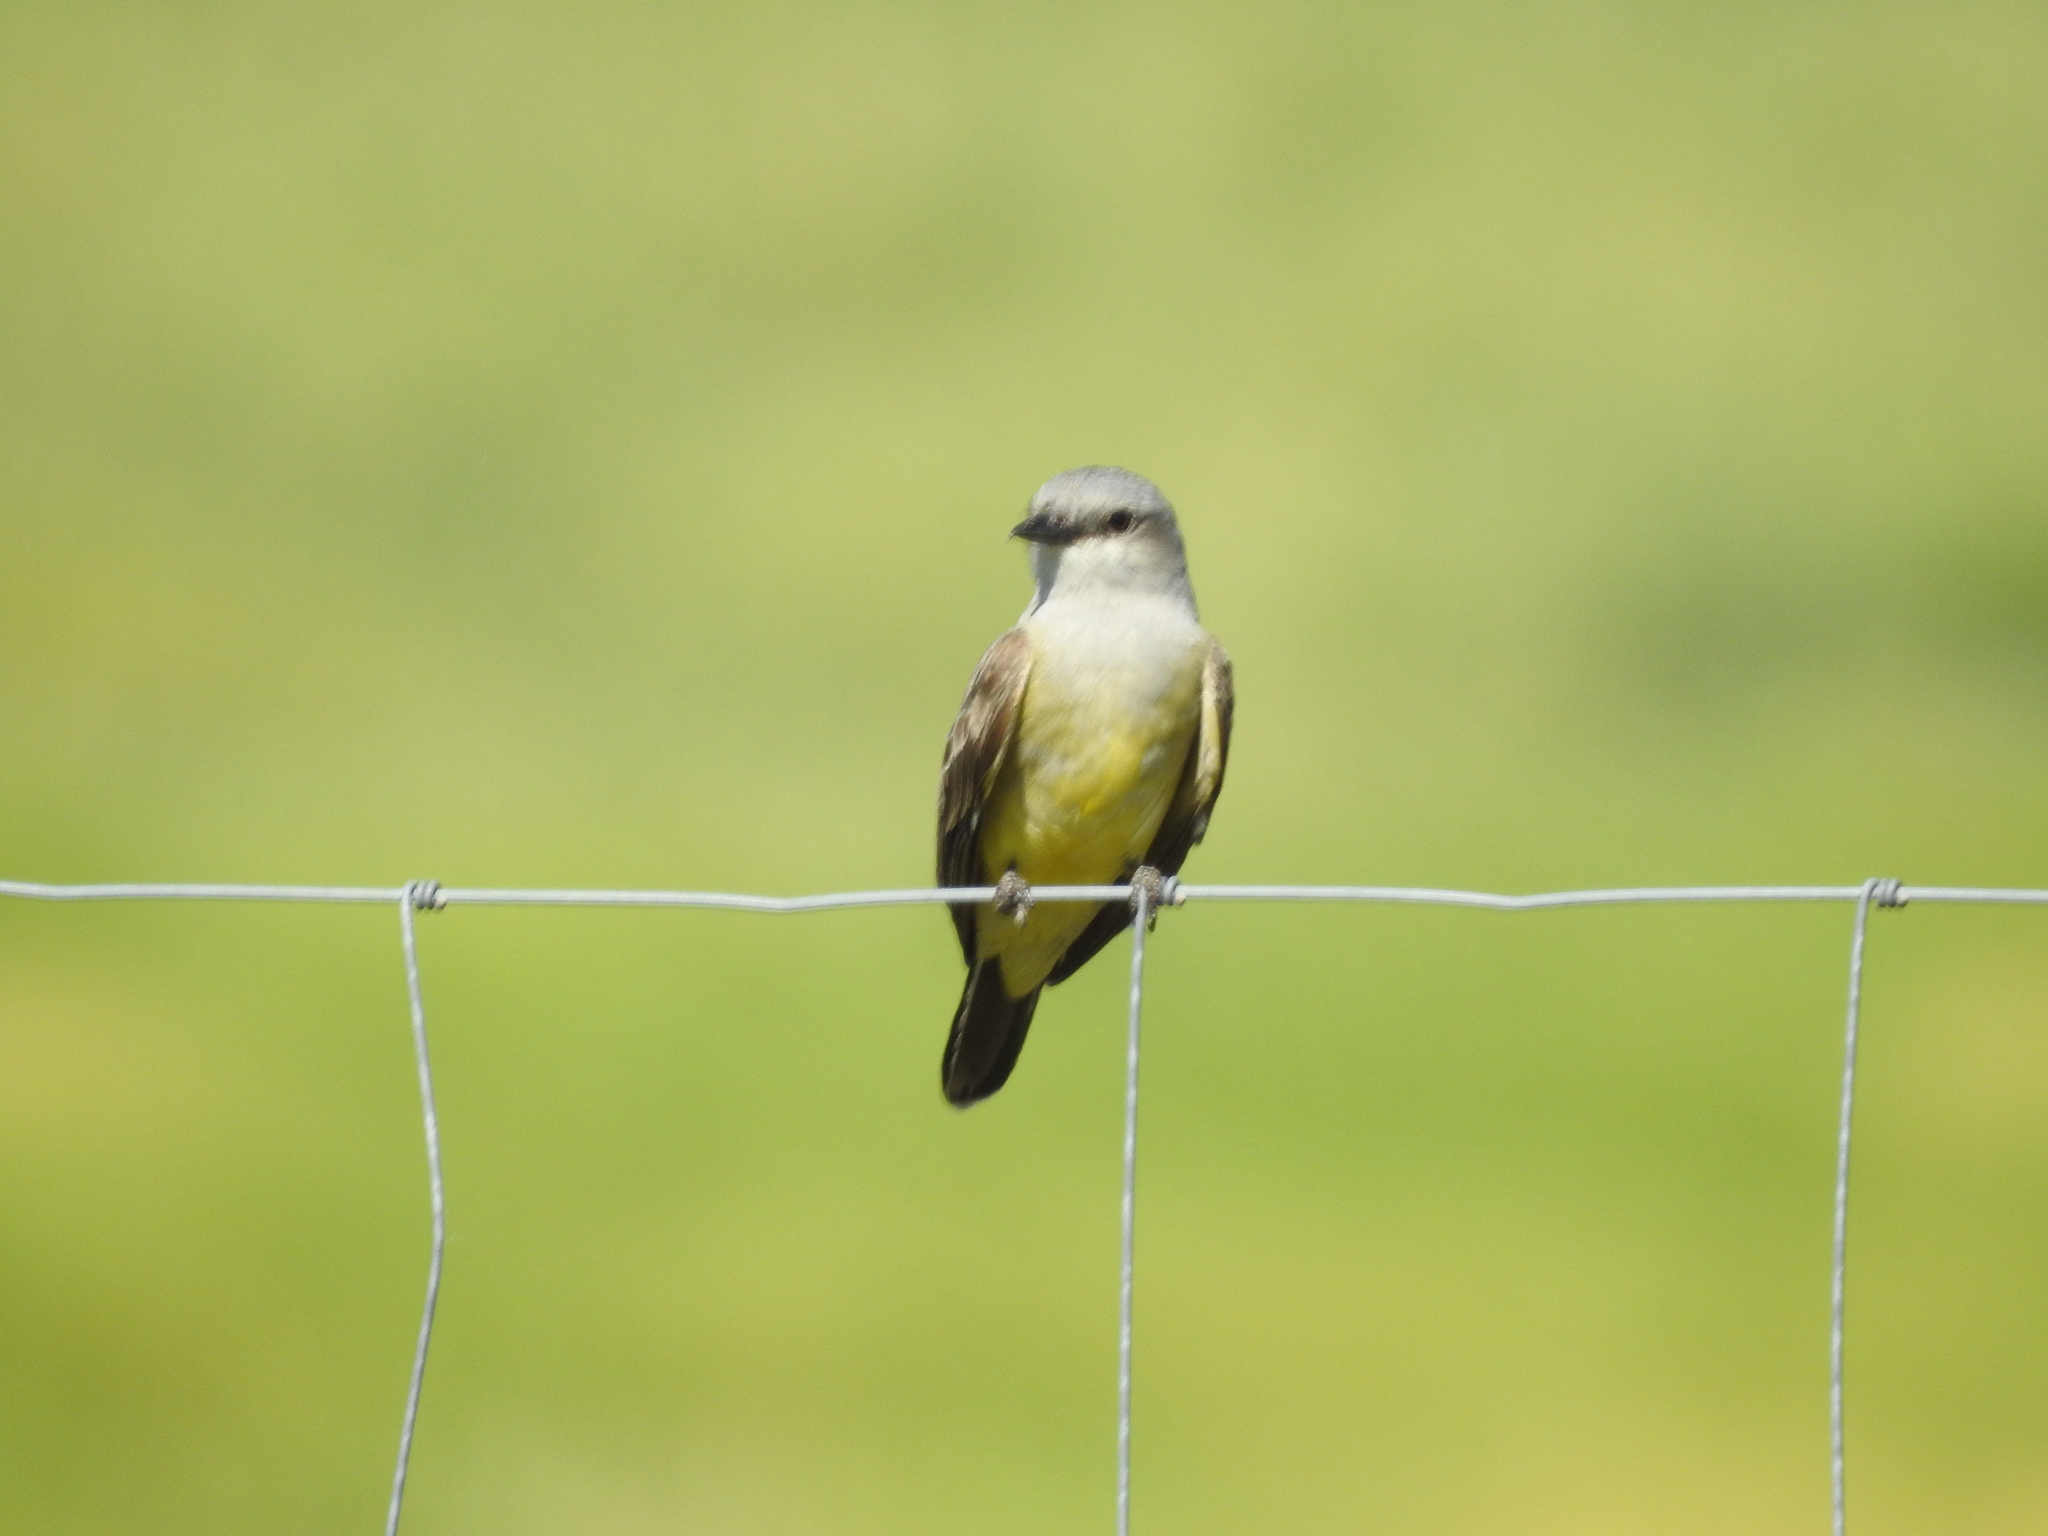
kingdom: Animalia
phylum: Chordata
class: Aves
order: Passeriformes
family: Tyrannidae
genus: Tyrannus
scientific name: Tyrannus verticalis
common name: Western kingbird
